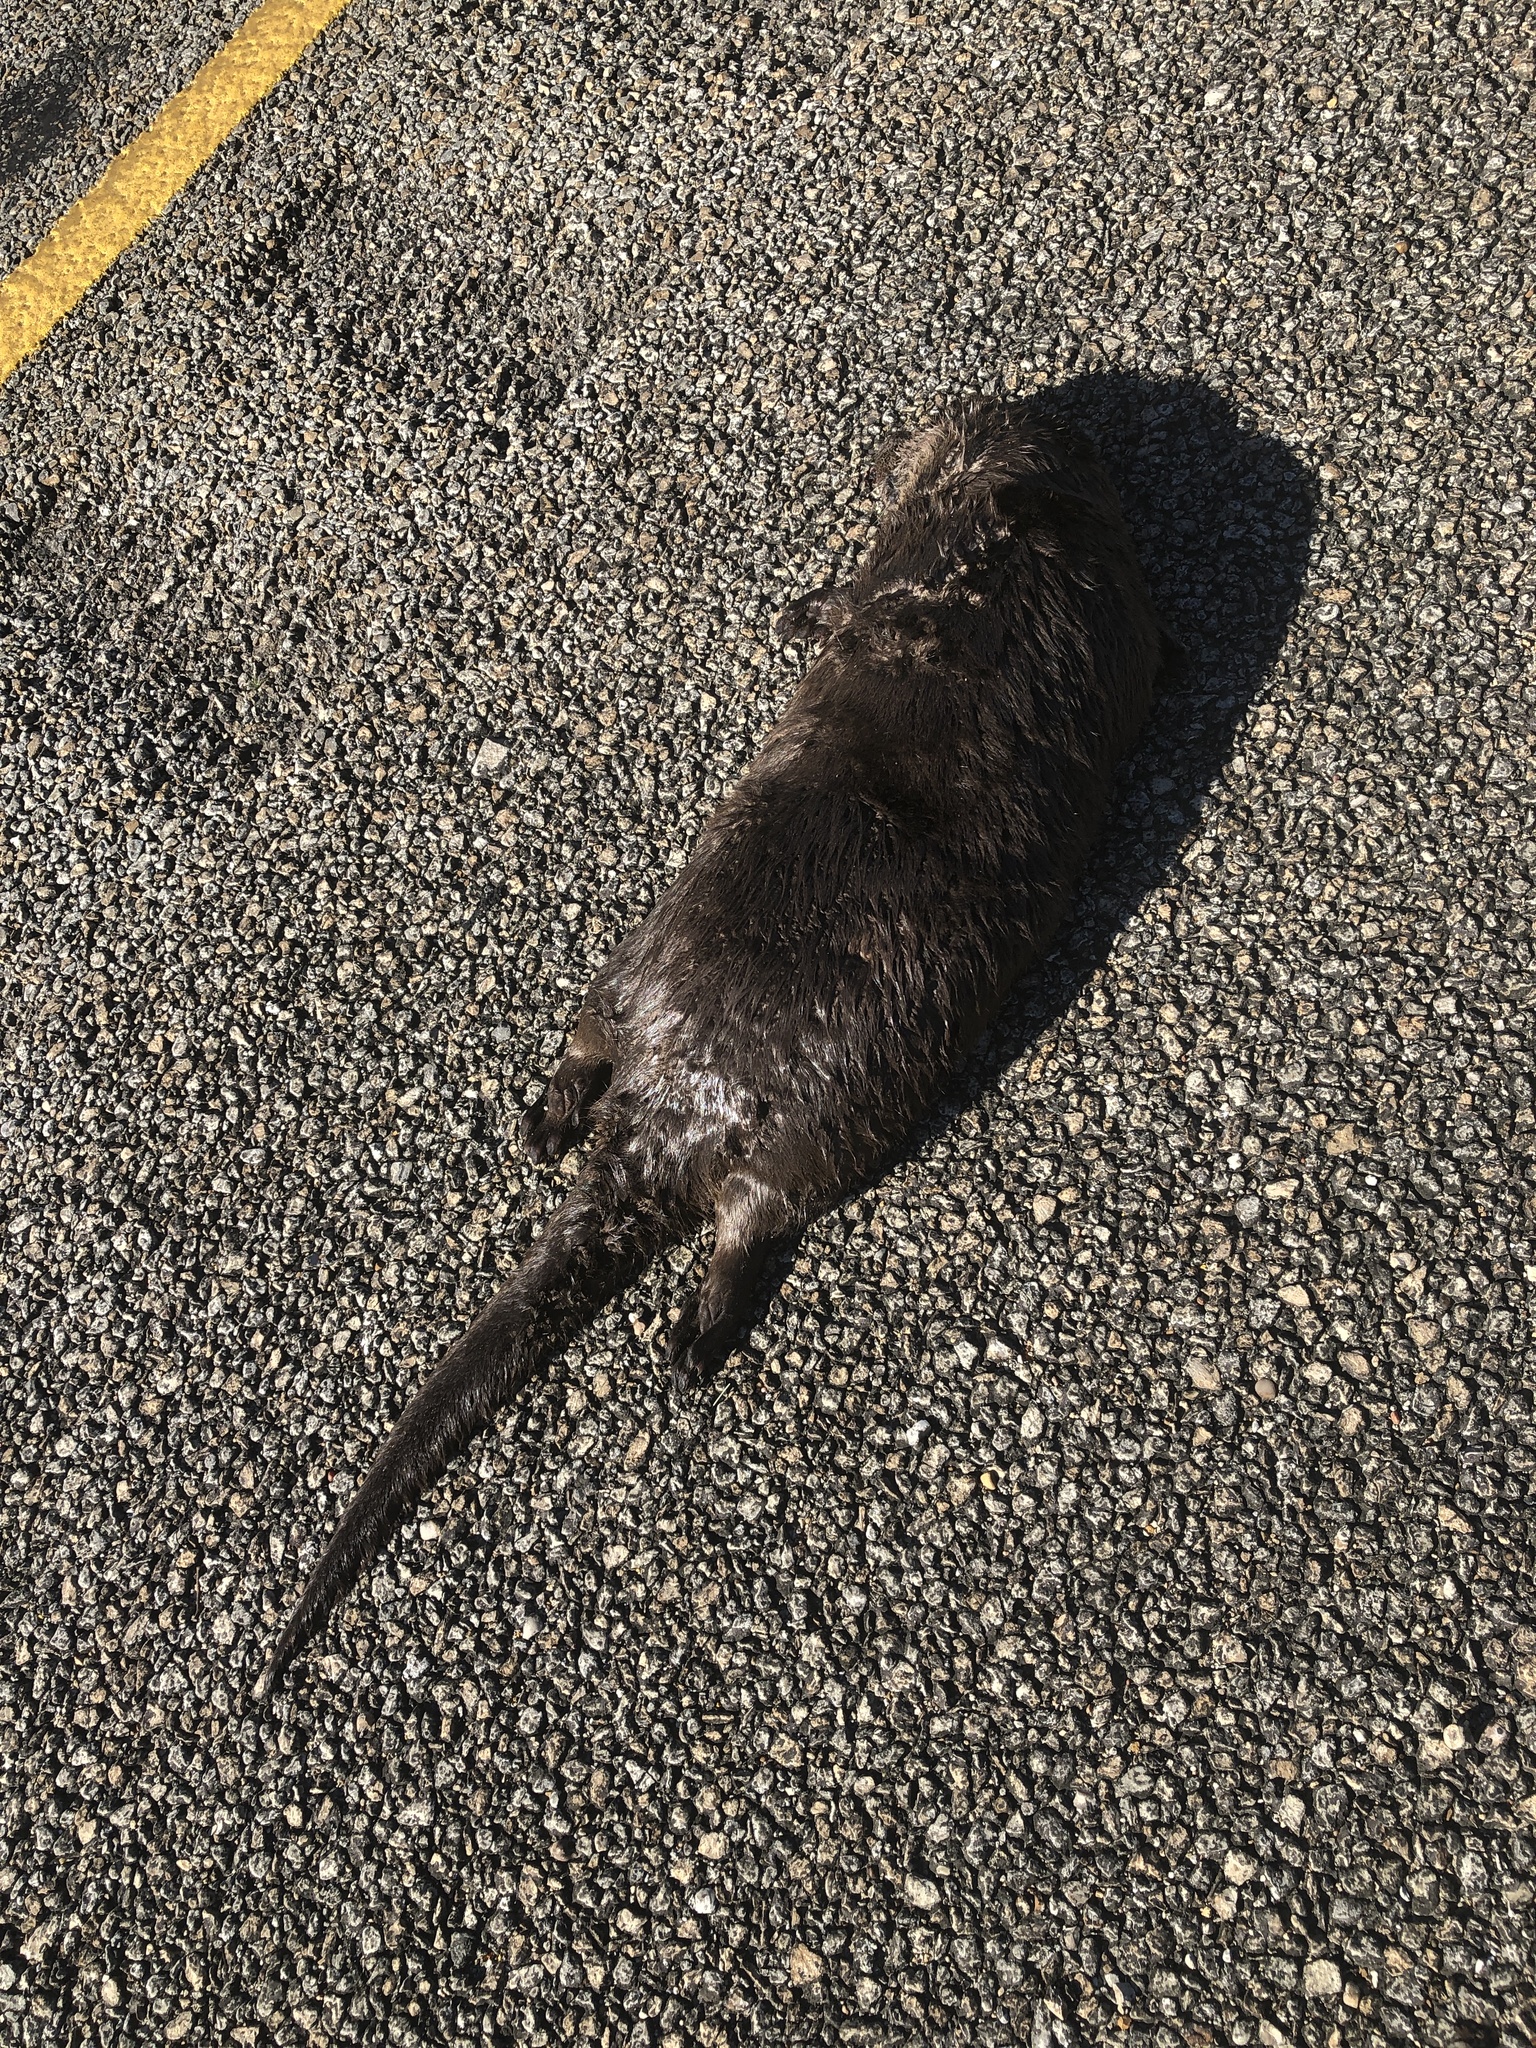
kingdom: Animalia
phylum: Chordata
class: Mammalia
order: Carnivora
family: Mustelidae
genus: Lontra
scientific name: Lontra canadensis
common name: North american river otter
